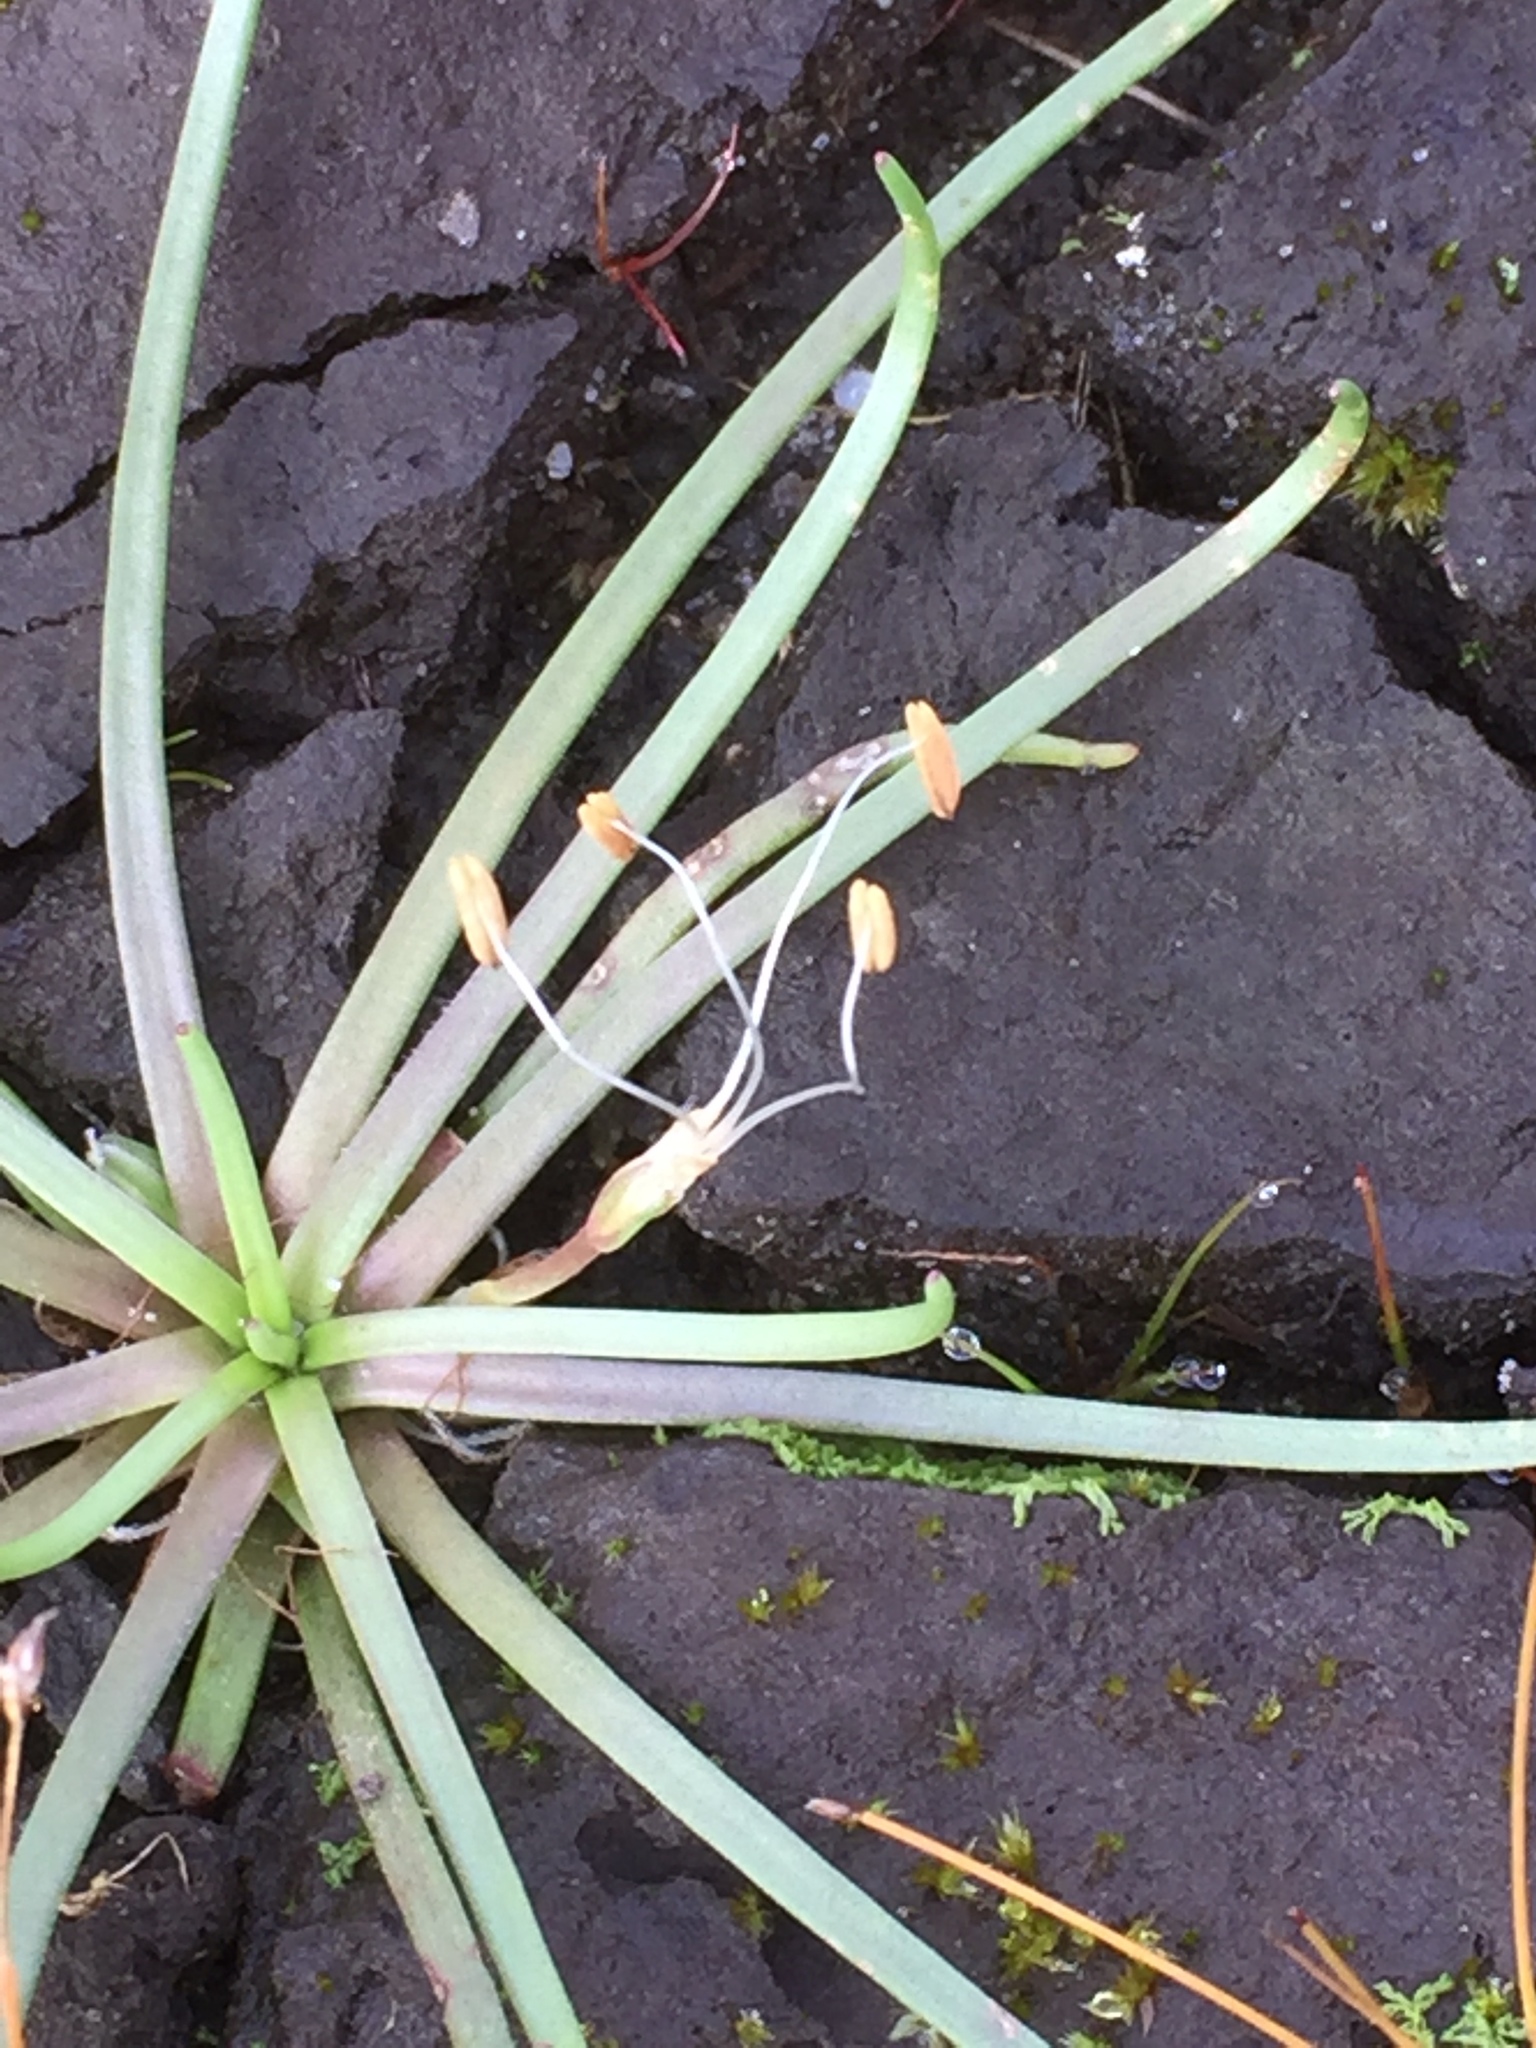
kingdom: Plantae
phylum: Tracheophyta
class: Magnoliopsida
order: Lamiales
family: Plantaginaceae
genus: Littorella
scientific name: Littorella uniflora
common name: Shoreweed
